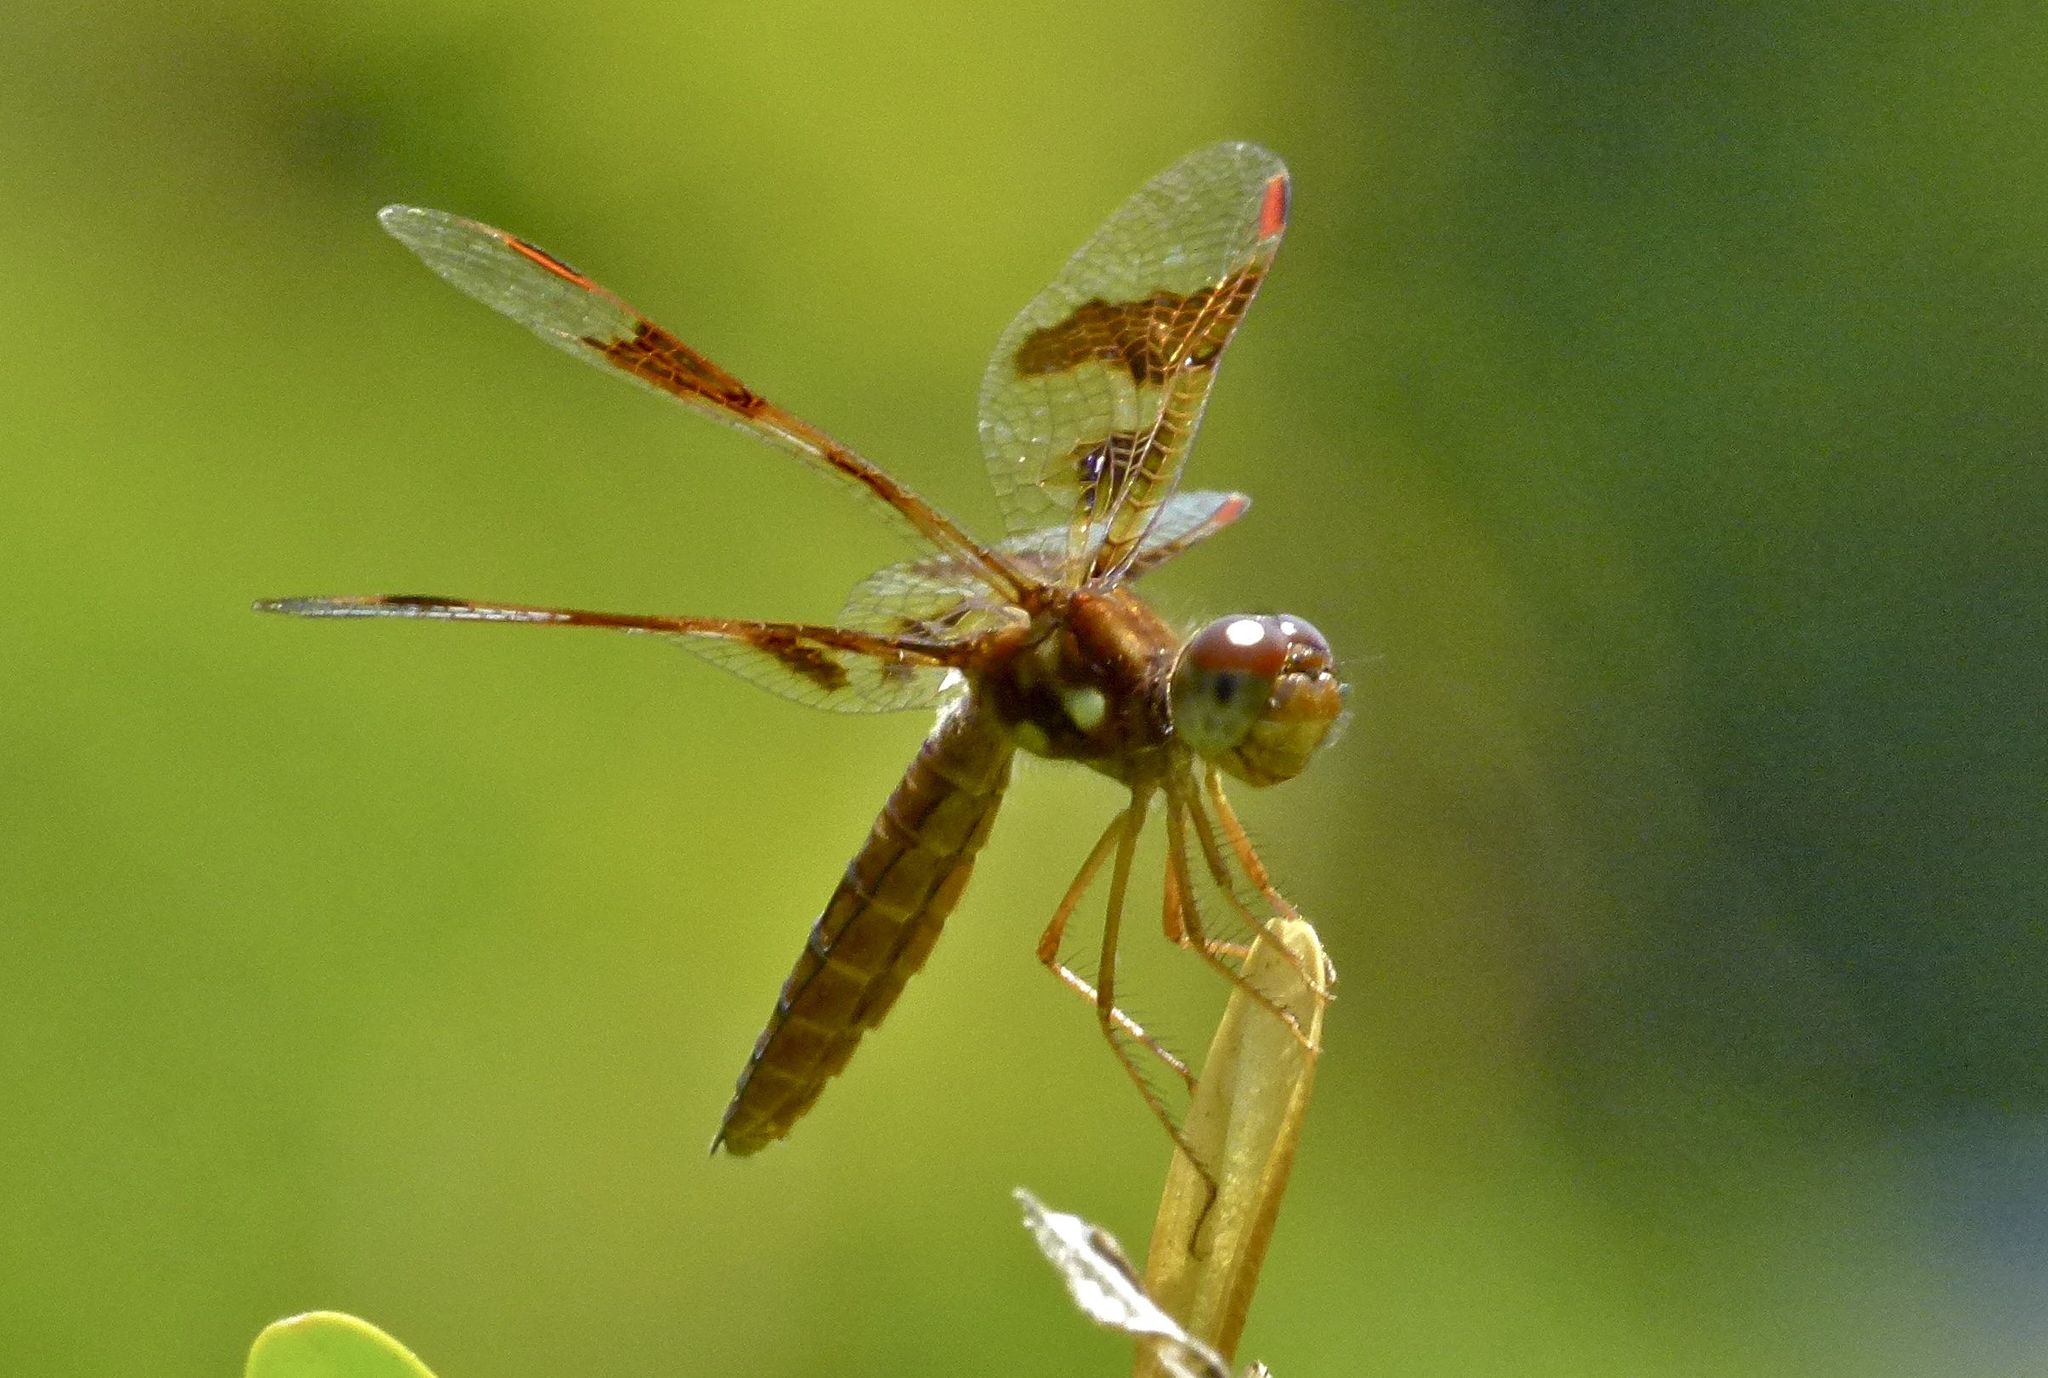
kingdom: Animalia
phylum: Arthropoda
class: Insecta
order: Odonata
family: Libellulidae
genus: Perithemis
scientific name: Perithemis tenera
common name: Eastern amberwing
